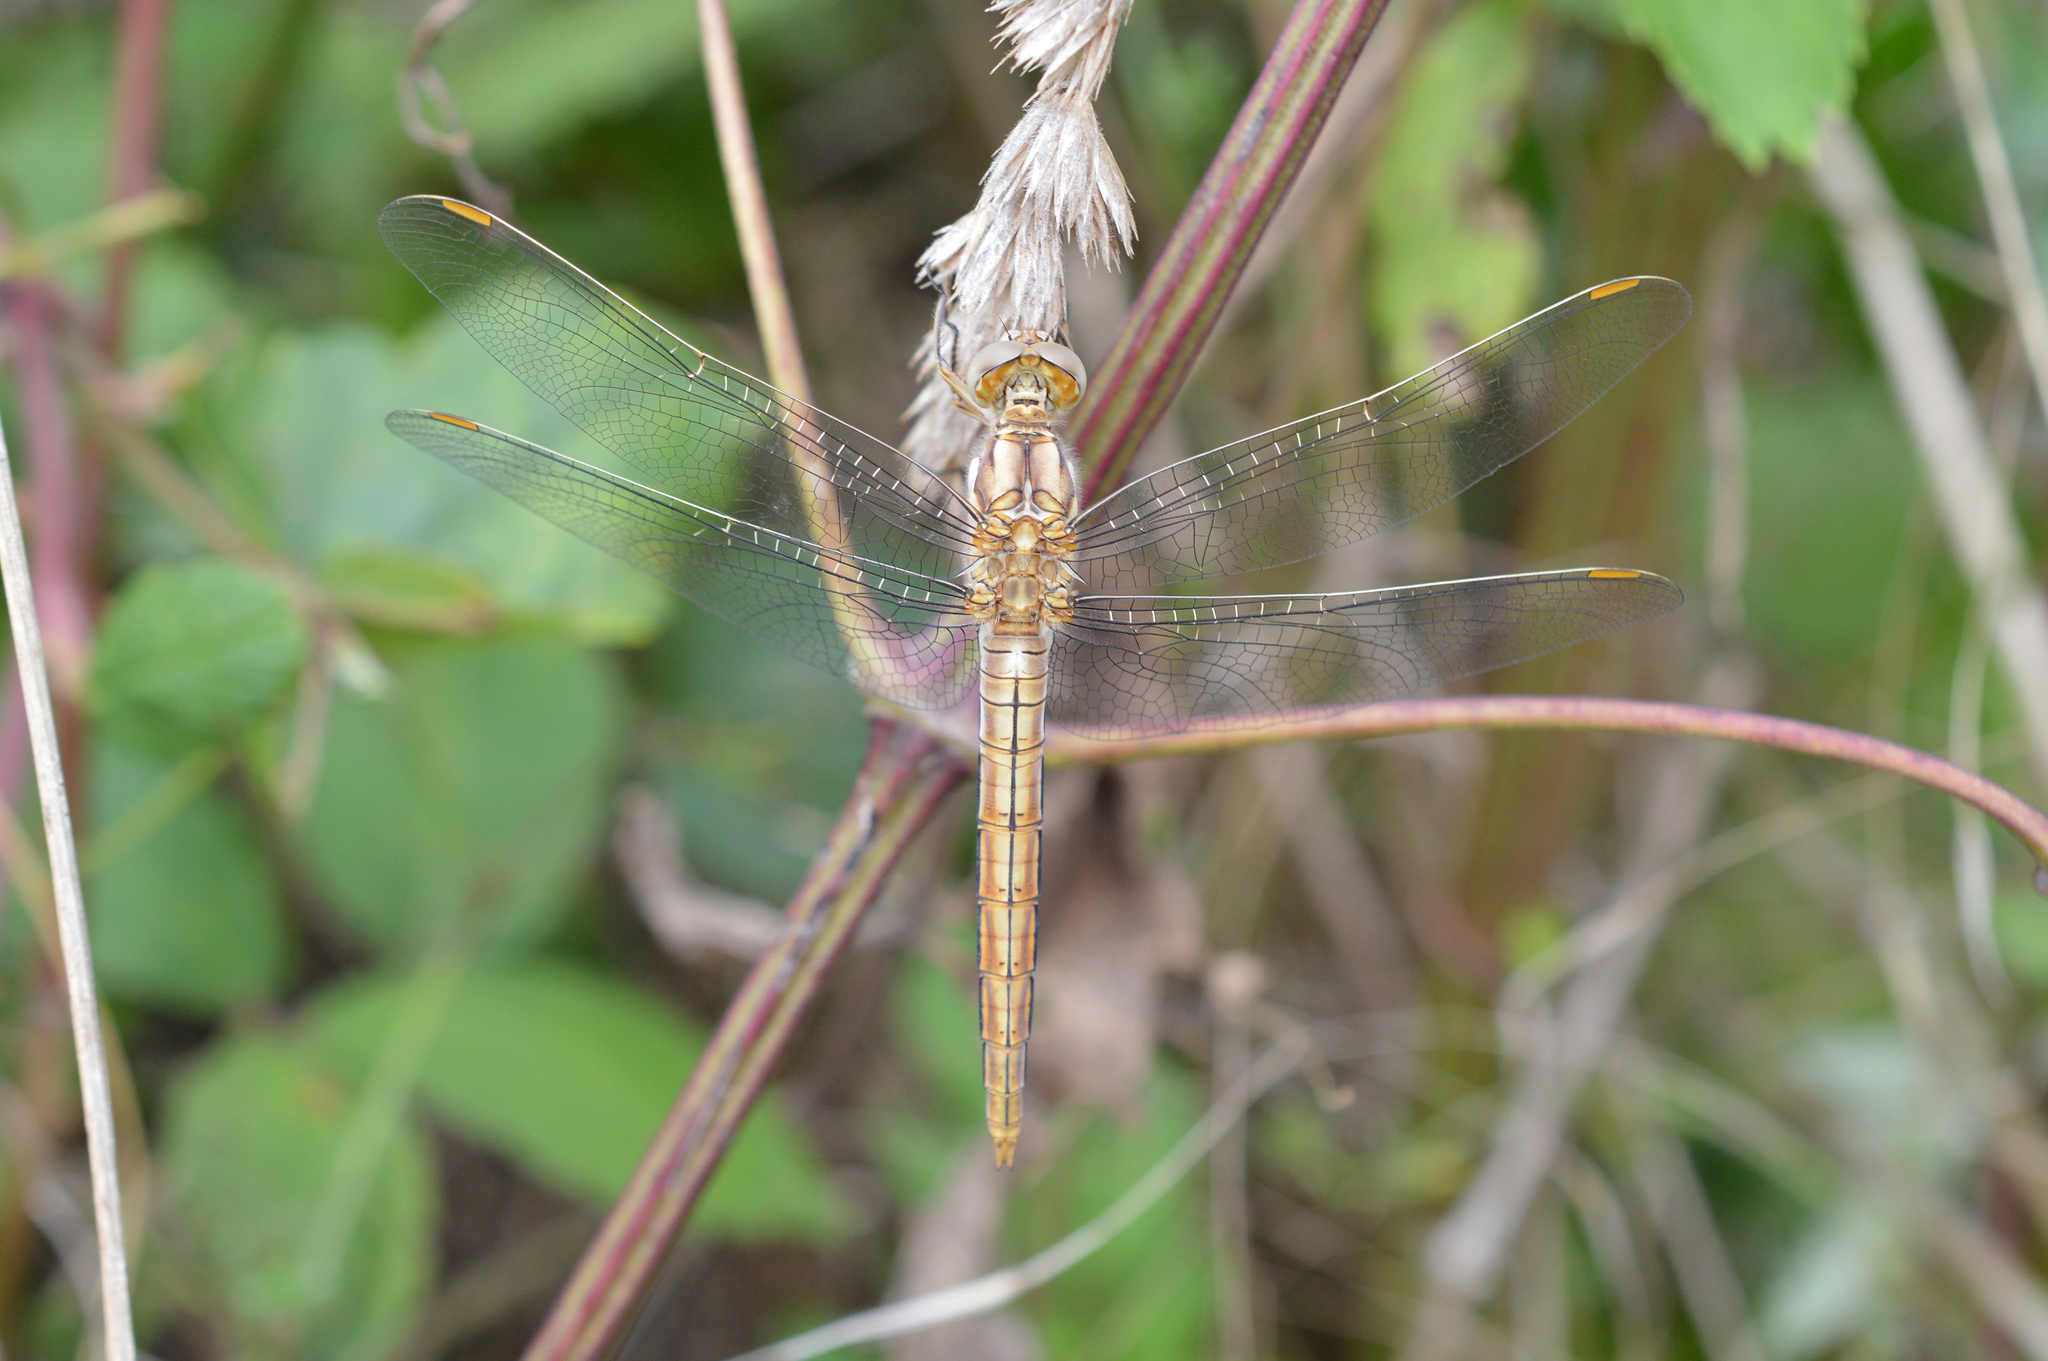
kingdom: Animalia
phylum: Arthropoda
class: Insecta
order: Odonata
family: Libellulidae
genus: Orthetrum
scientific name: Orthetrum brunneum
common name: Southern skimmer
